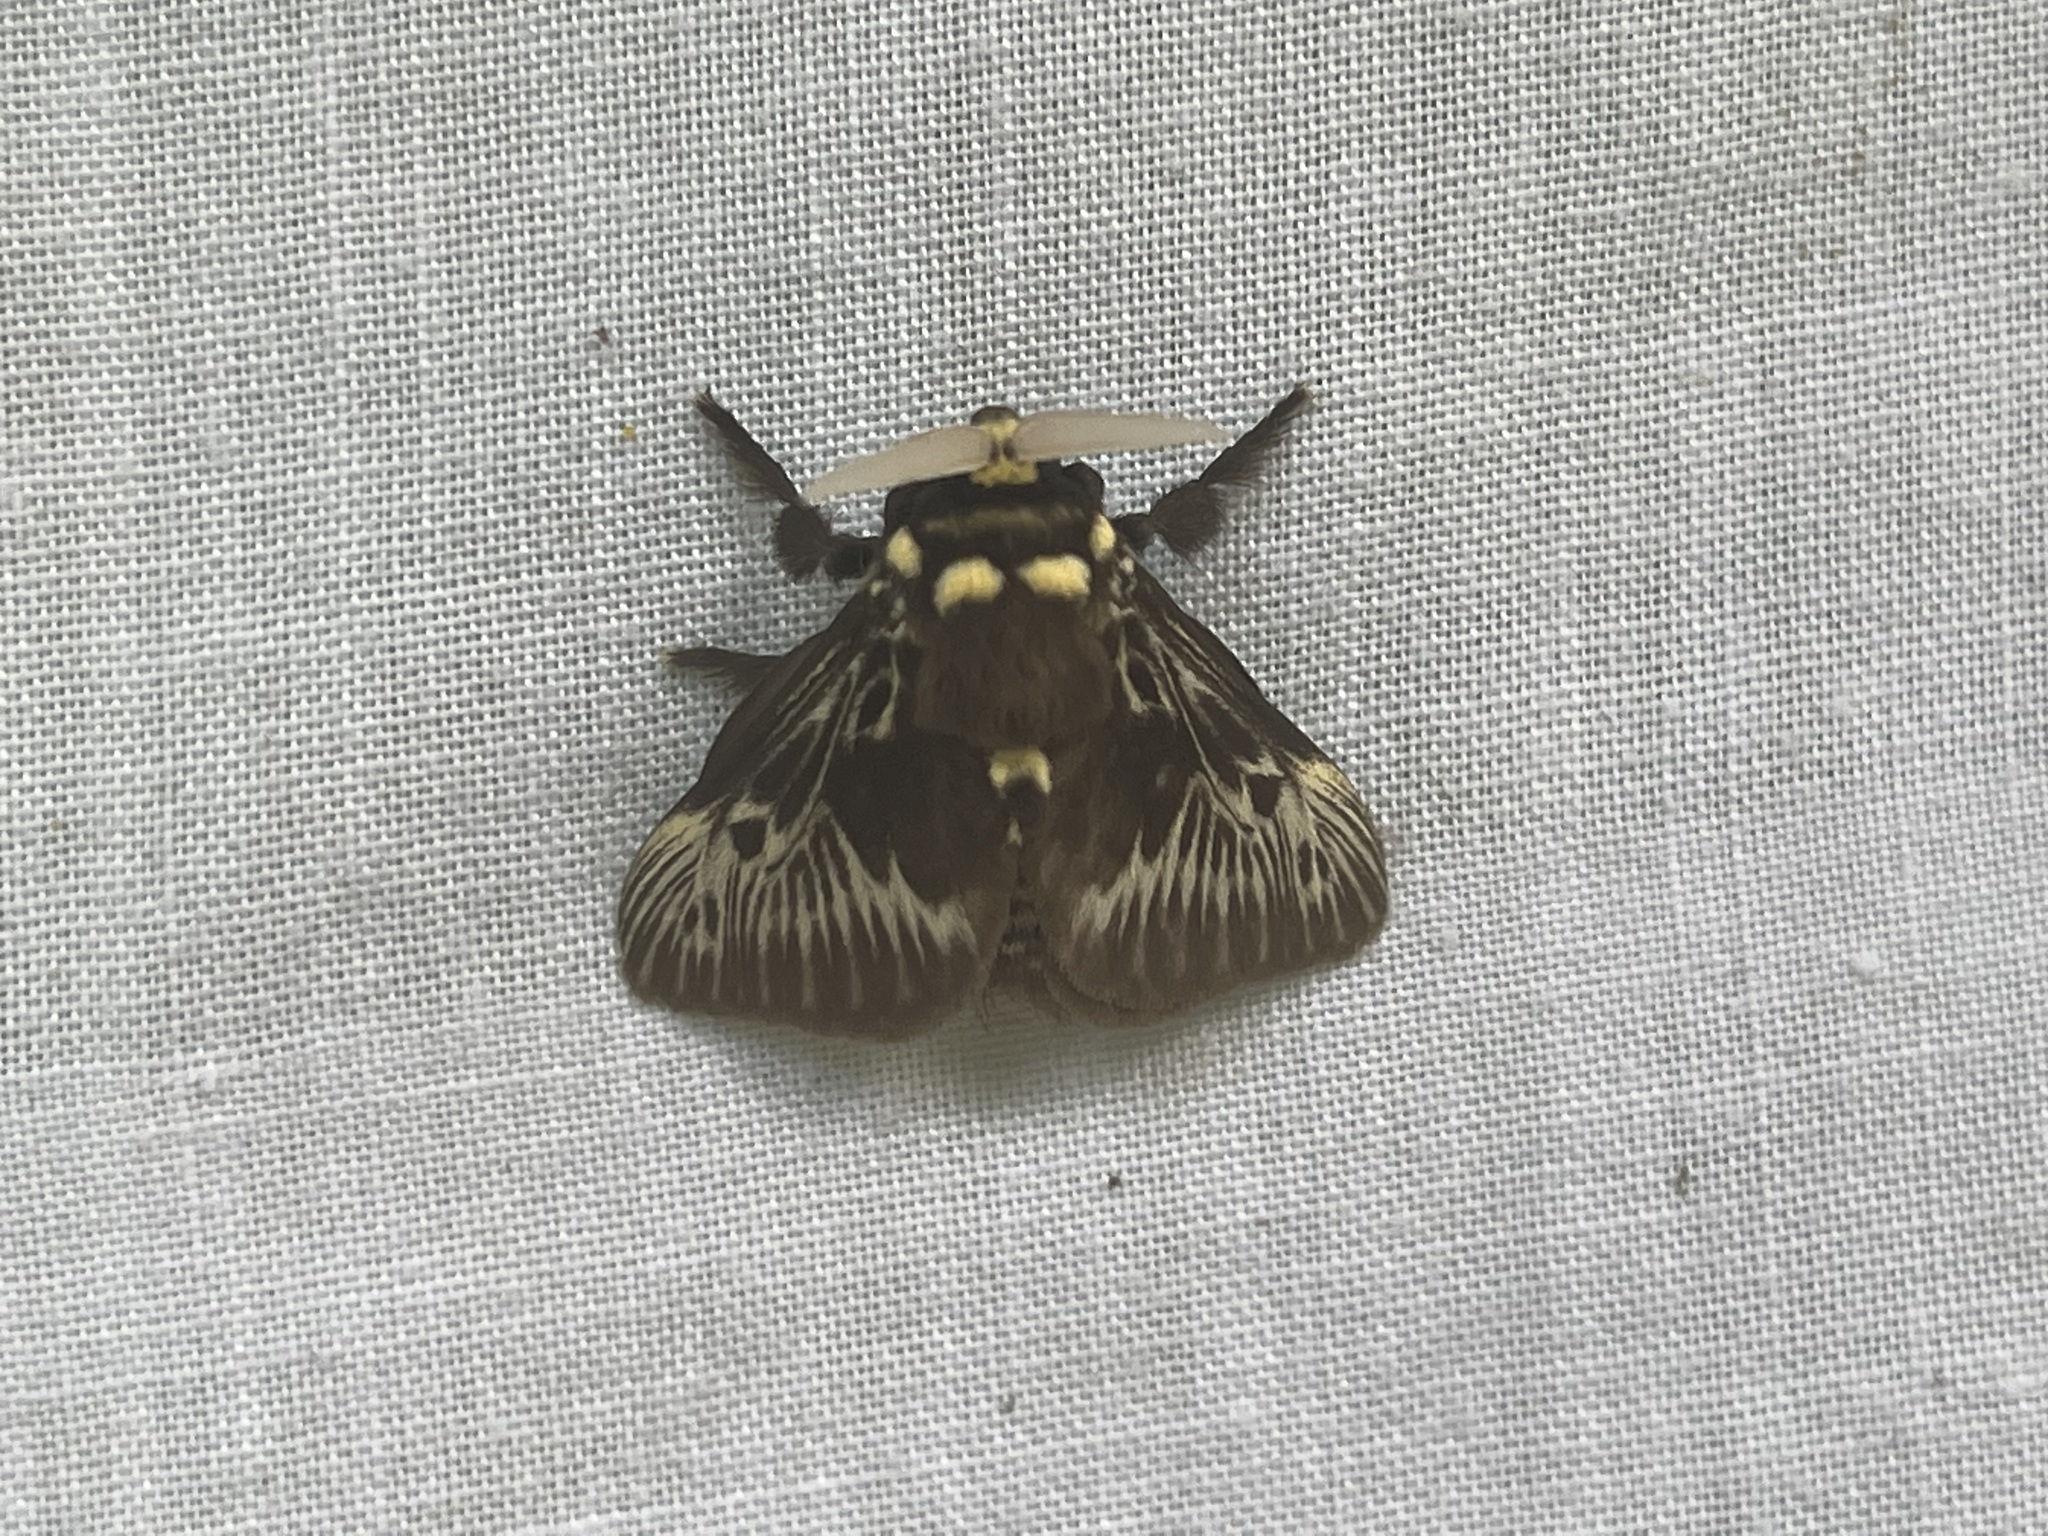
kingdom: Animalia
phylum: Arthropoda
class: Insecta
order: Lepidoptera
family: Megalopygidae
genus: Megalopyge
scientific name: Megalopyge albicollis
